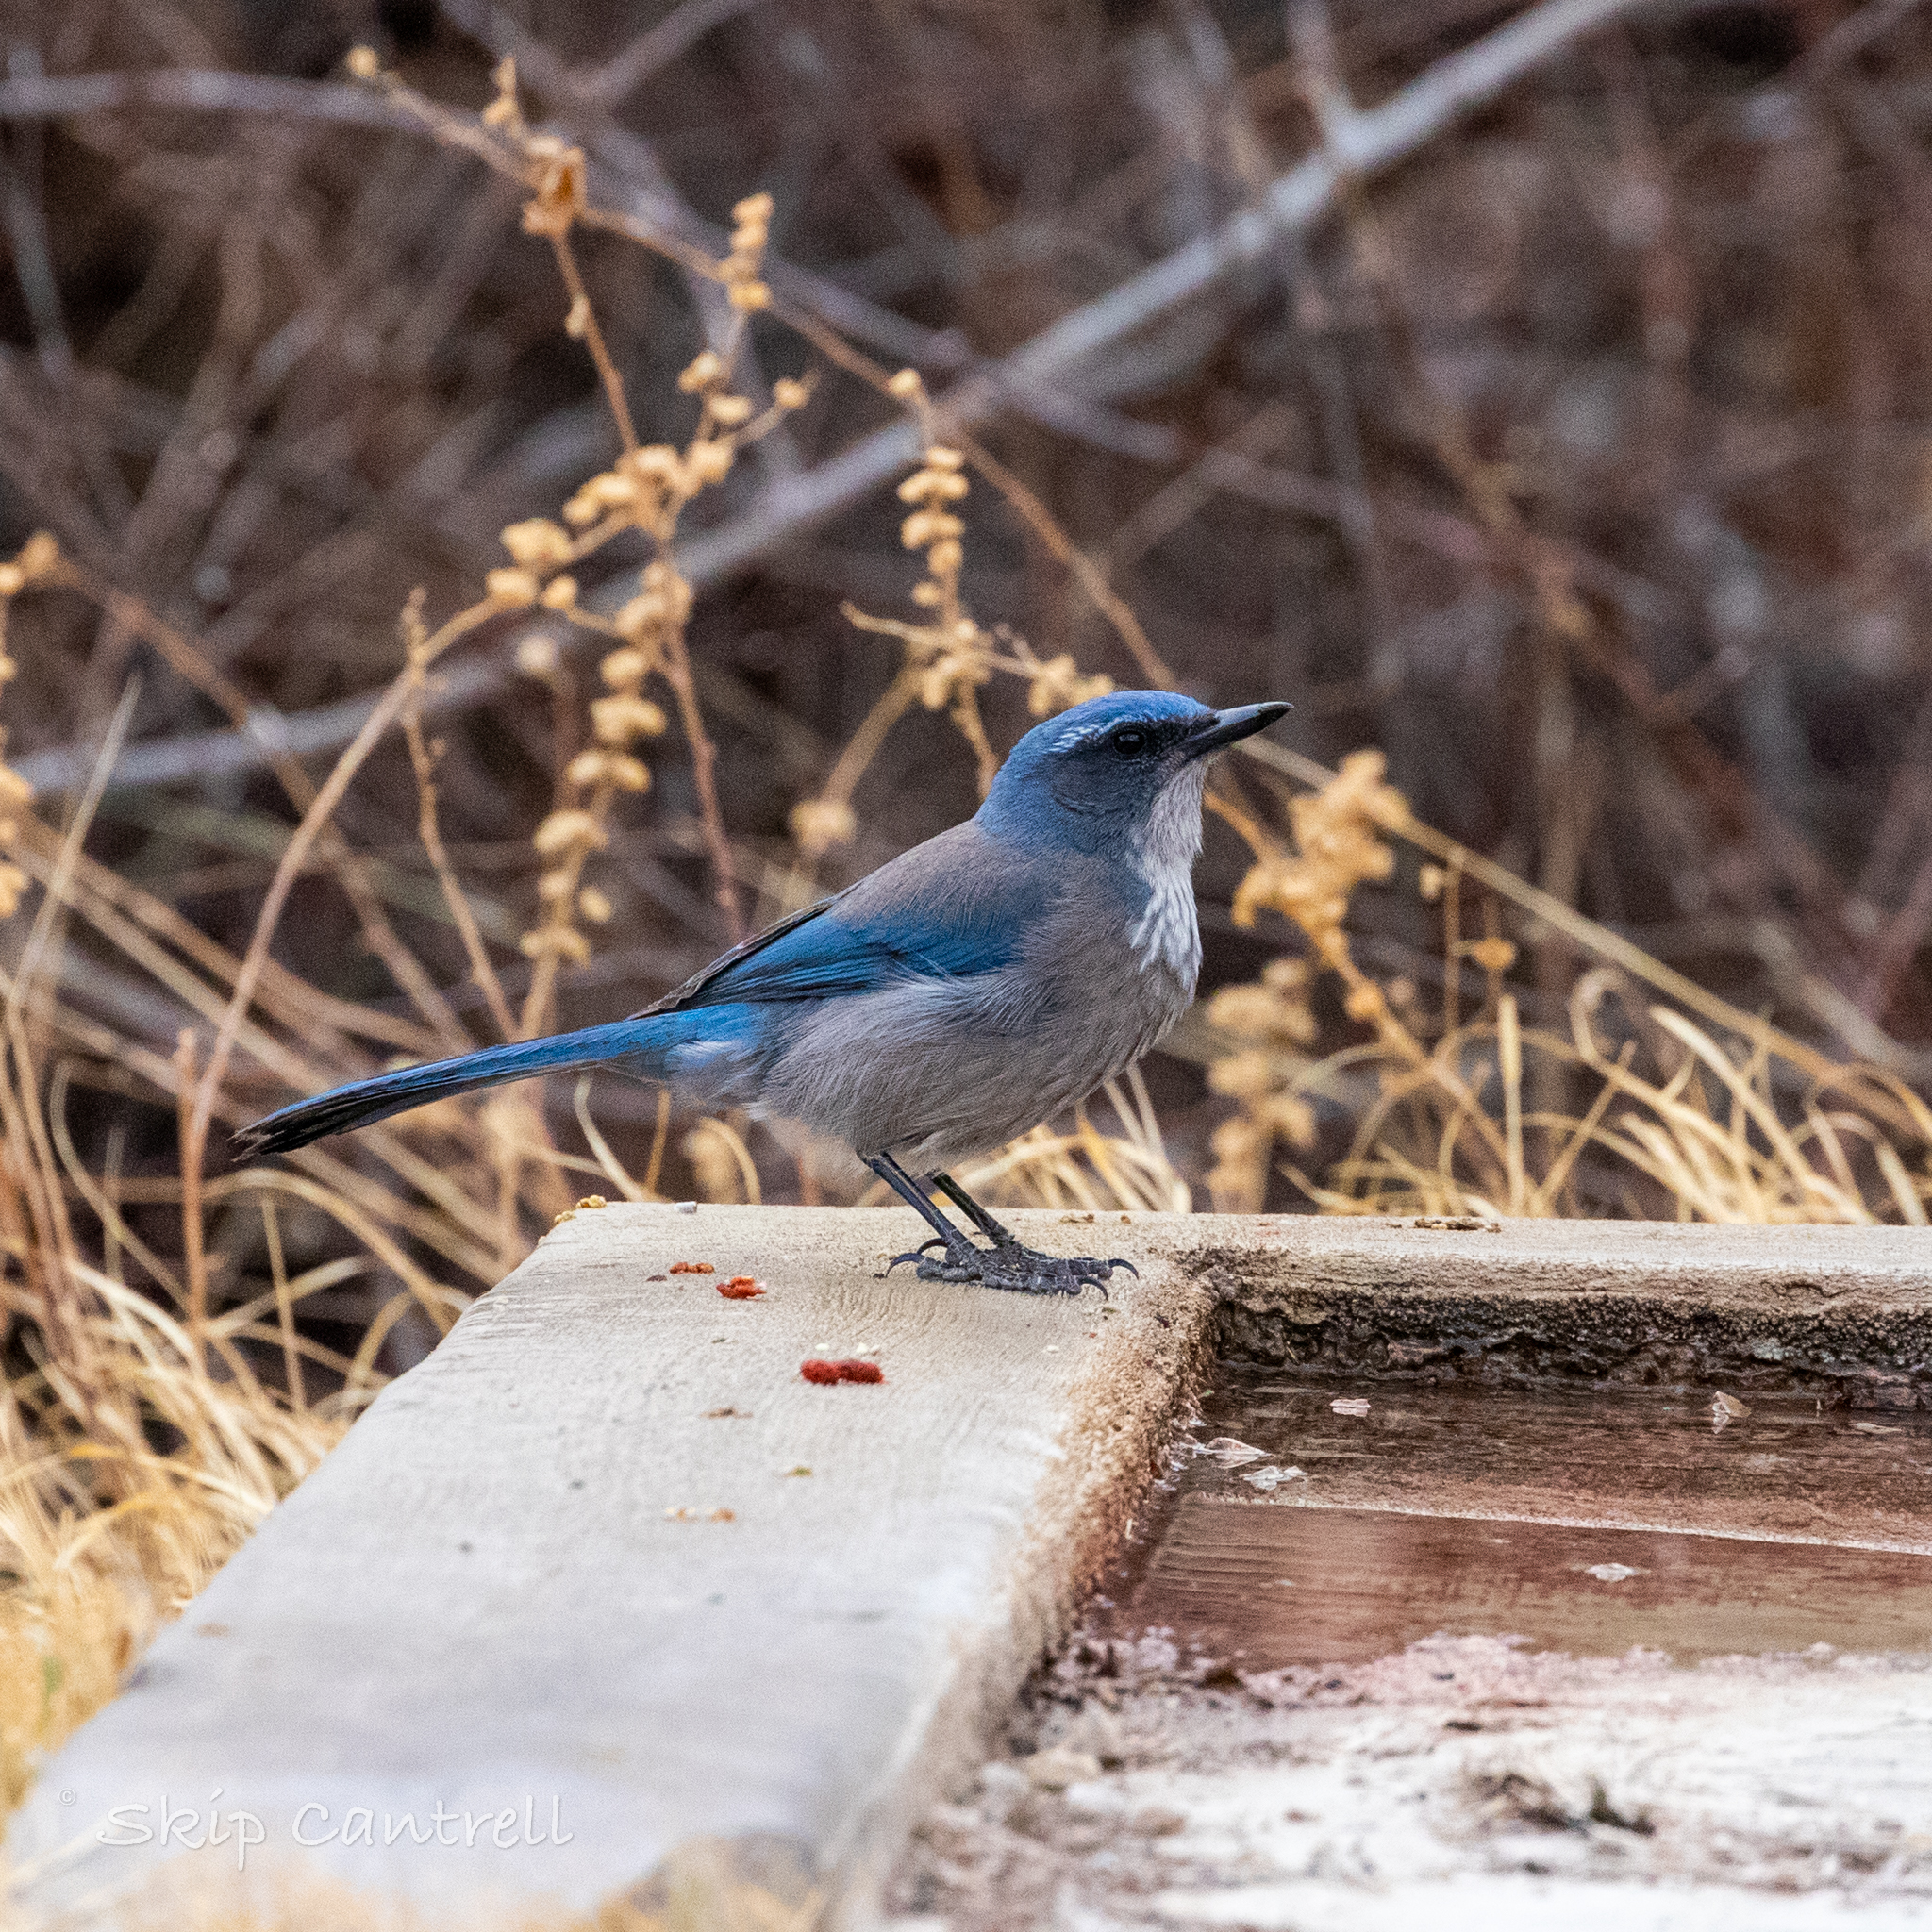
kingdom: Animalia
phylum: Chordata
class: Aves
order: Passeriformes
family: Corvidae
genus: Aphelocoma
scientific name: Aphelocoma woodhouseii
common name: Woodhouse's scrub-jay
